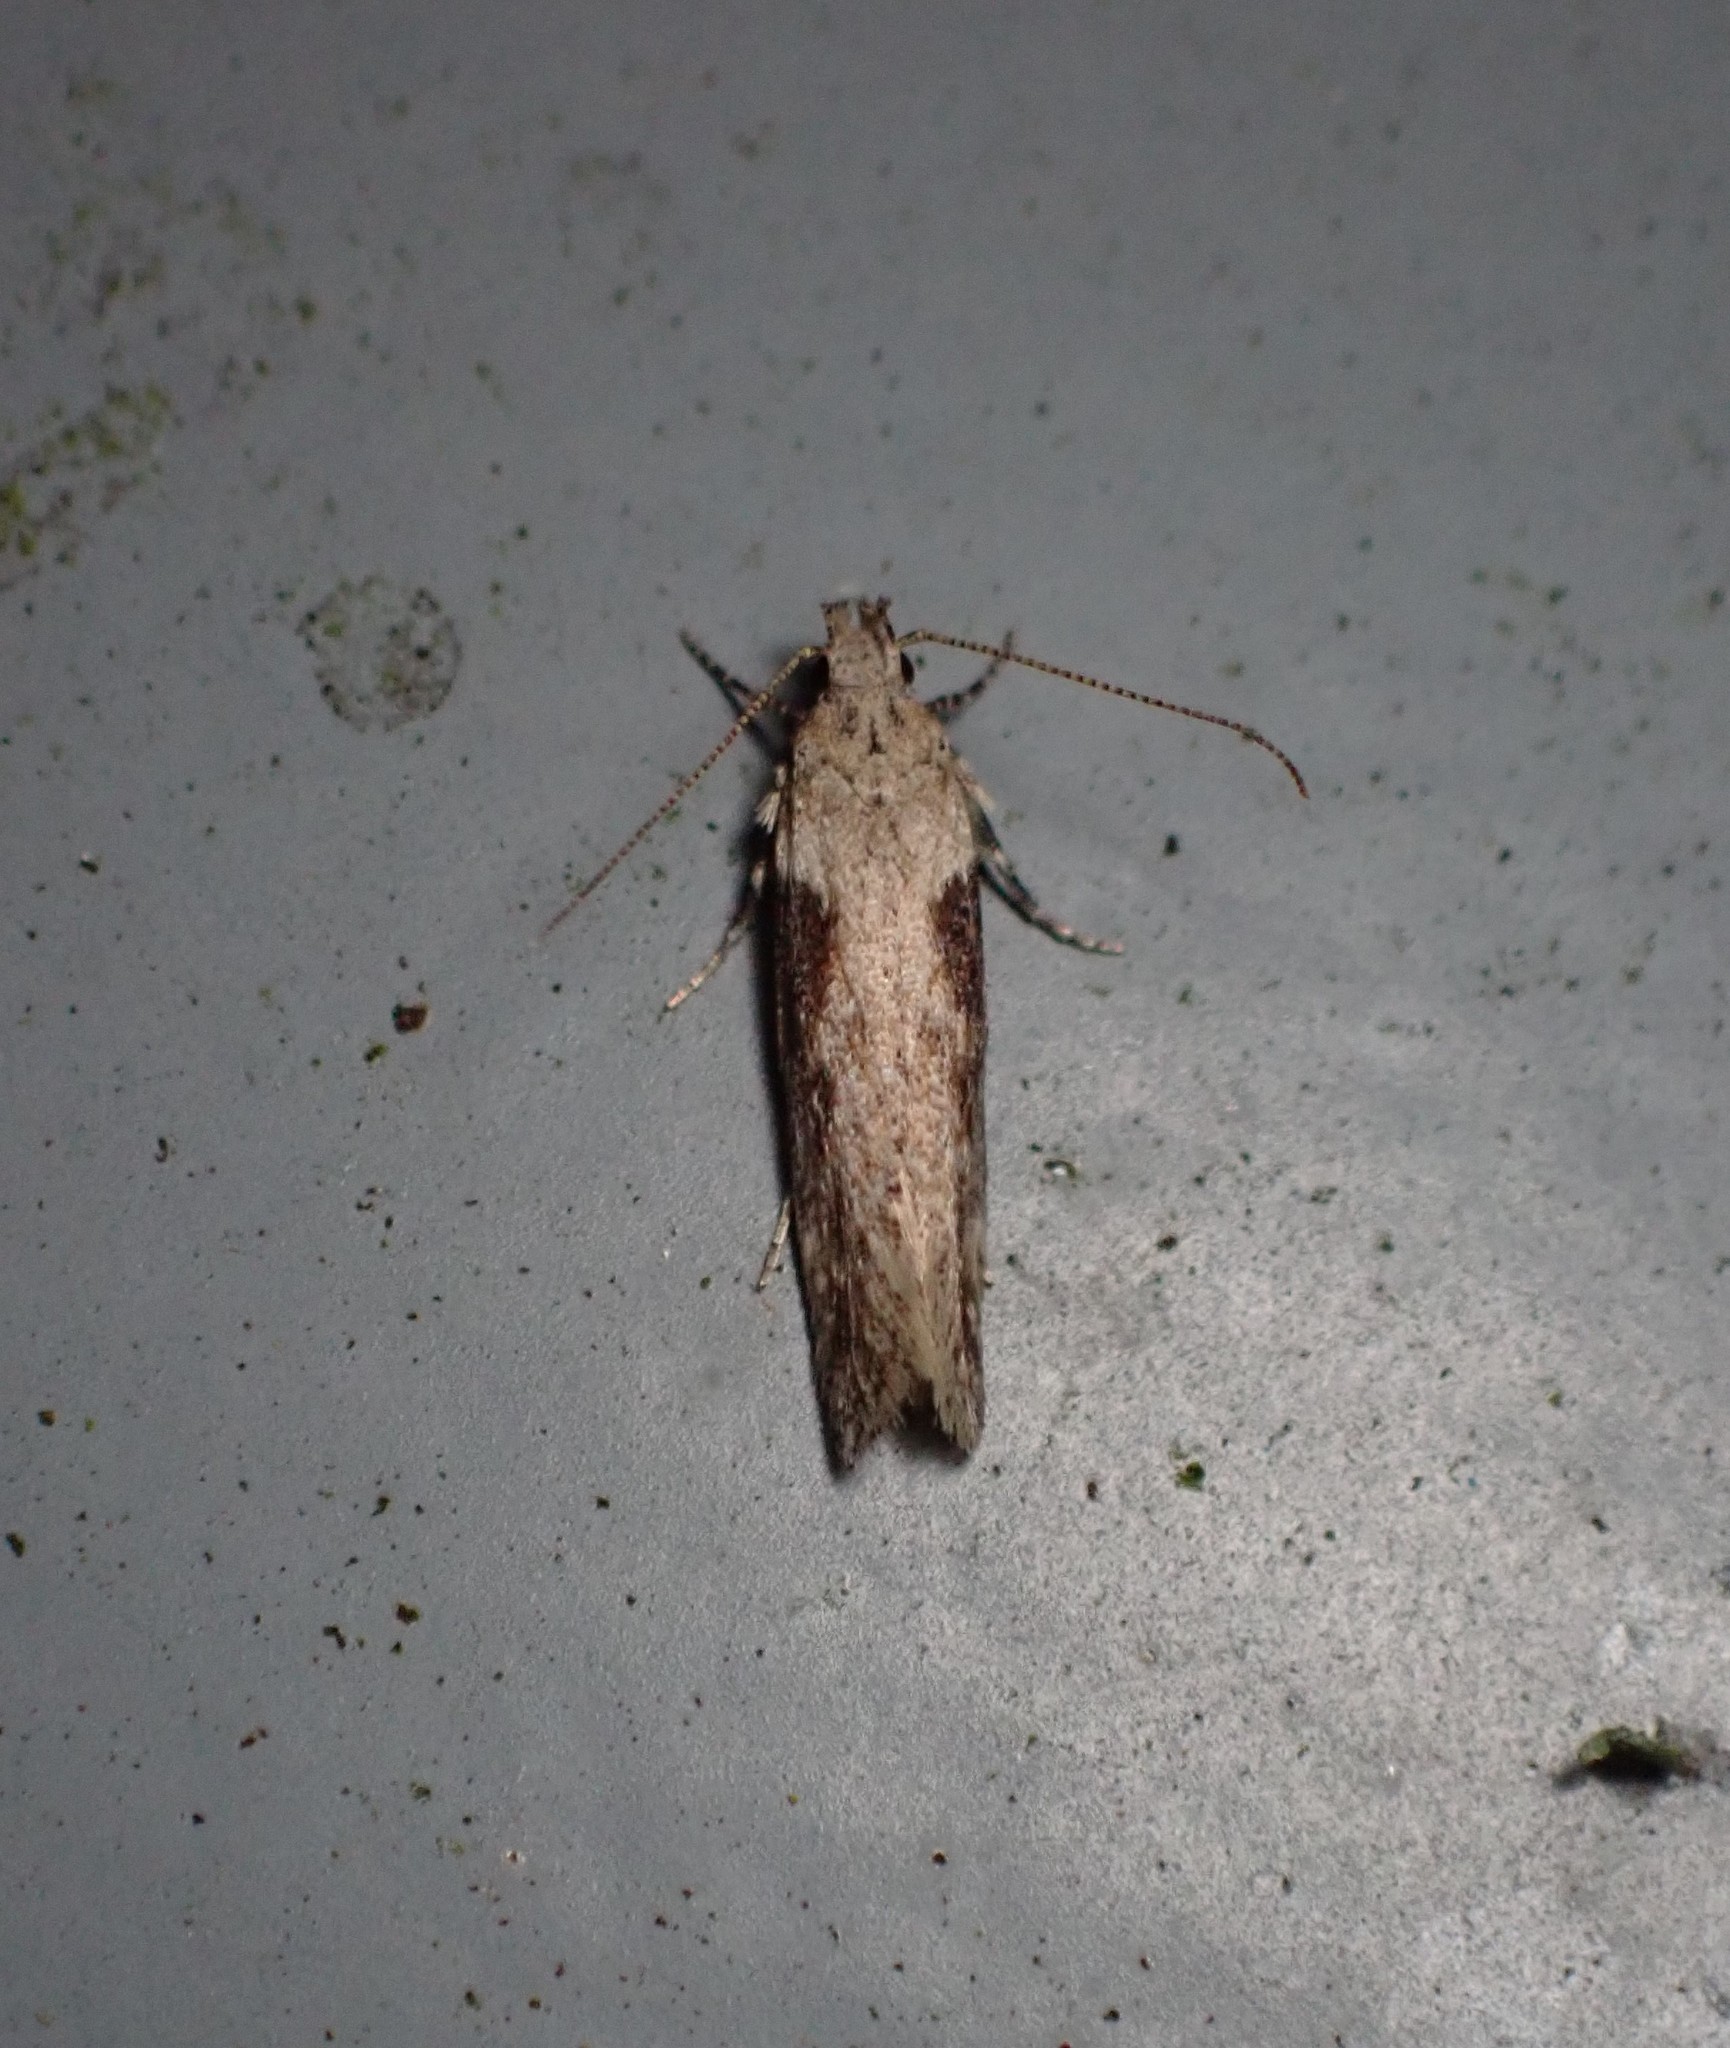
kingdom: Animalia
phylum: Arthropoda
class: Insecta
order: Lepidoptera
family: Gelechiidae
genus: Symmetrischema
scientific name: Symmetrischema tangolias
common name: Moth
